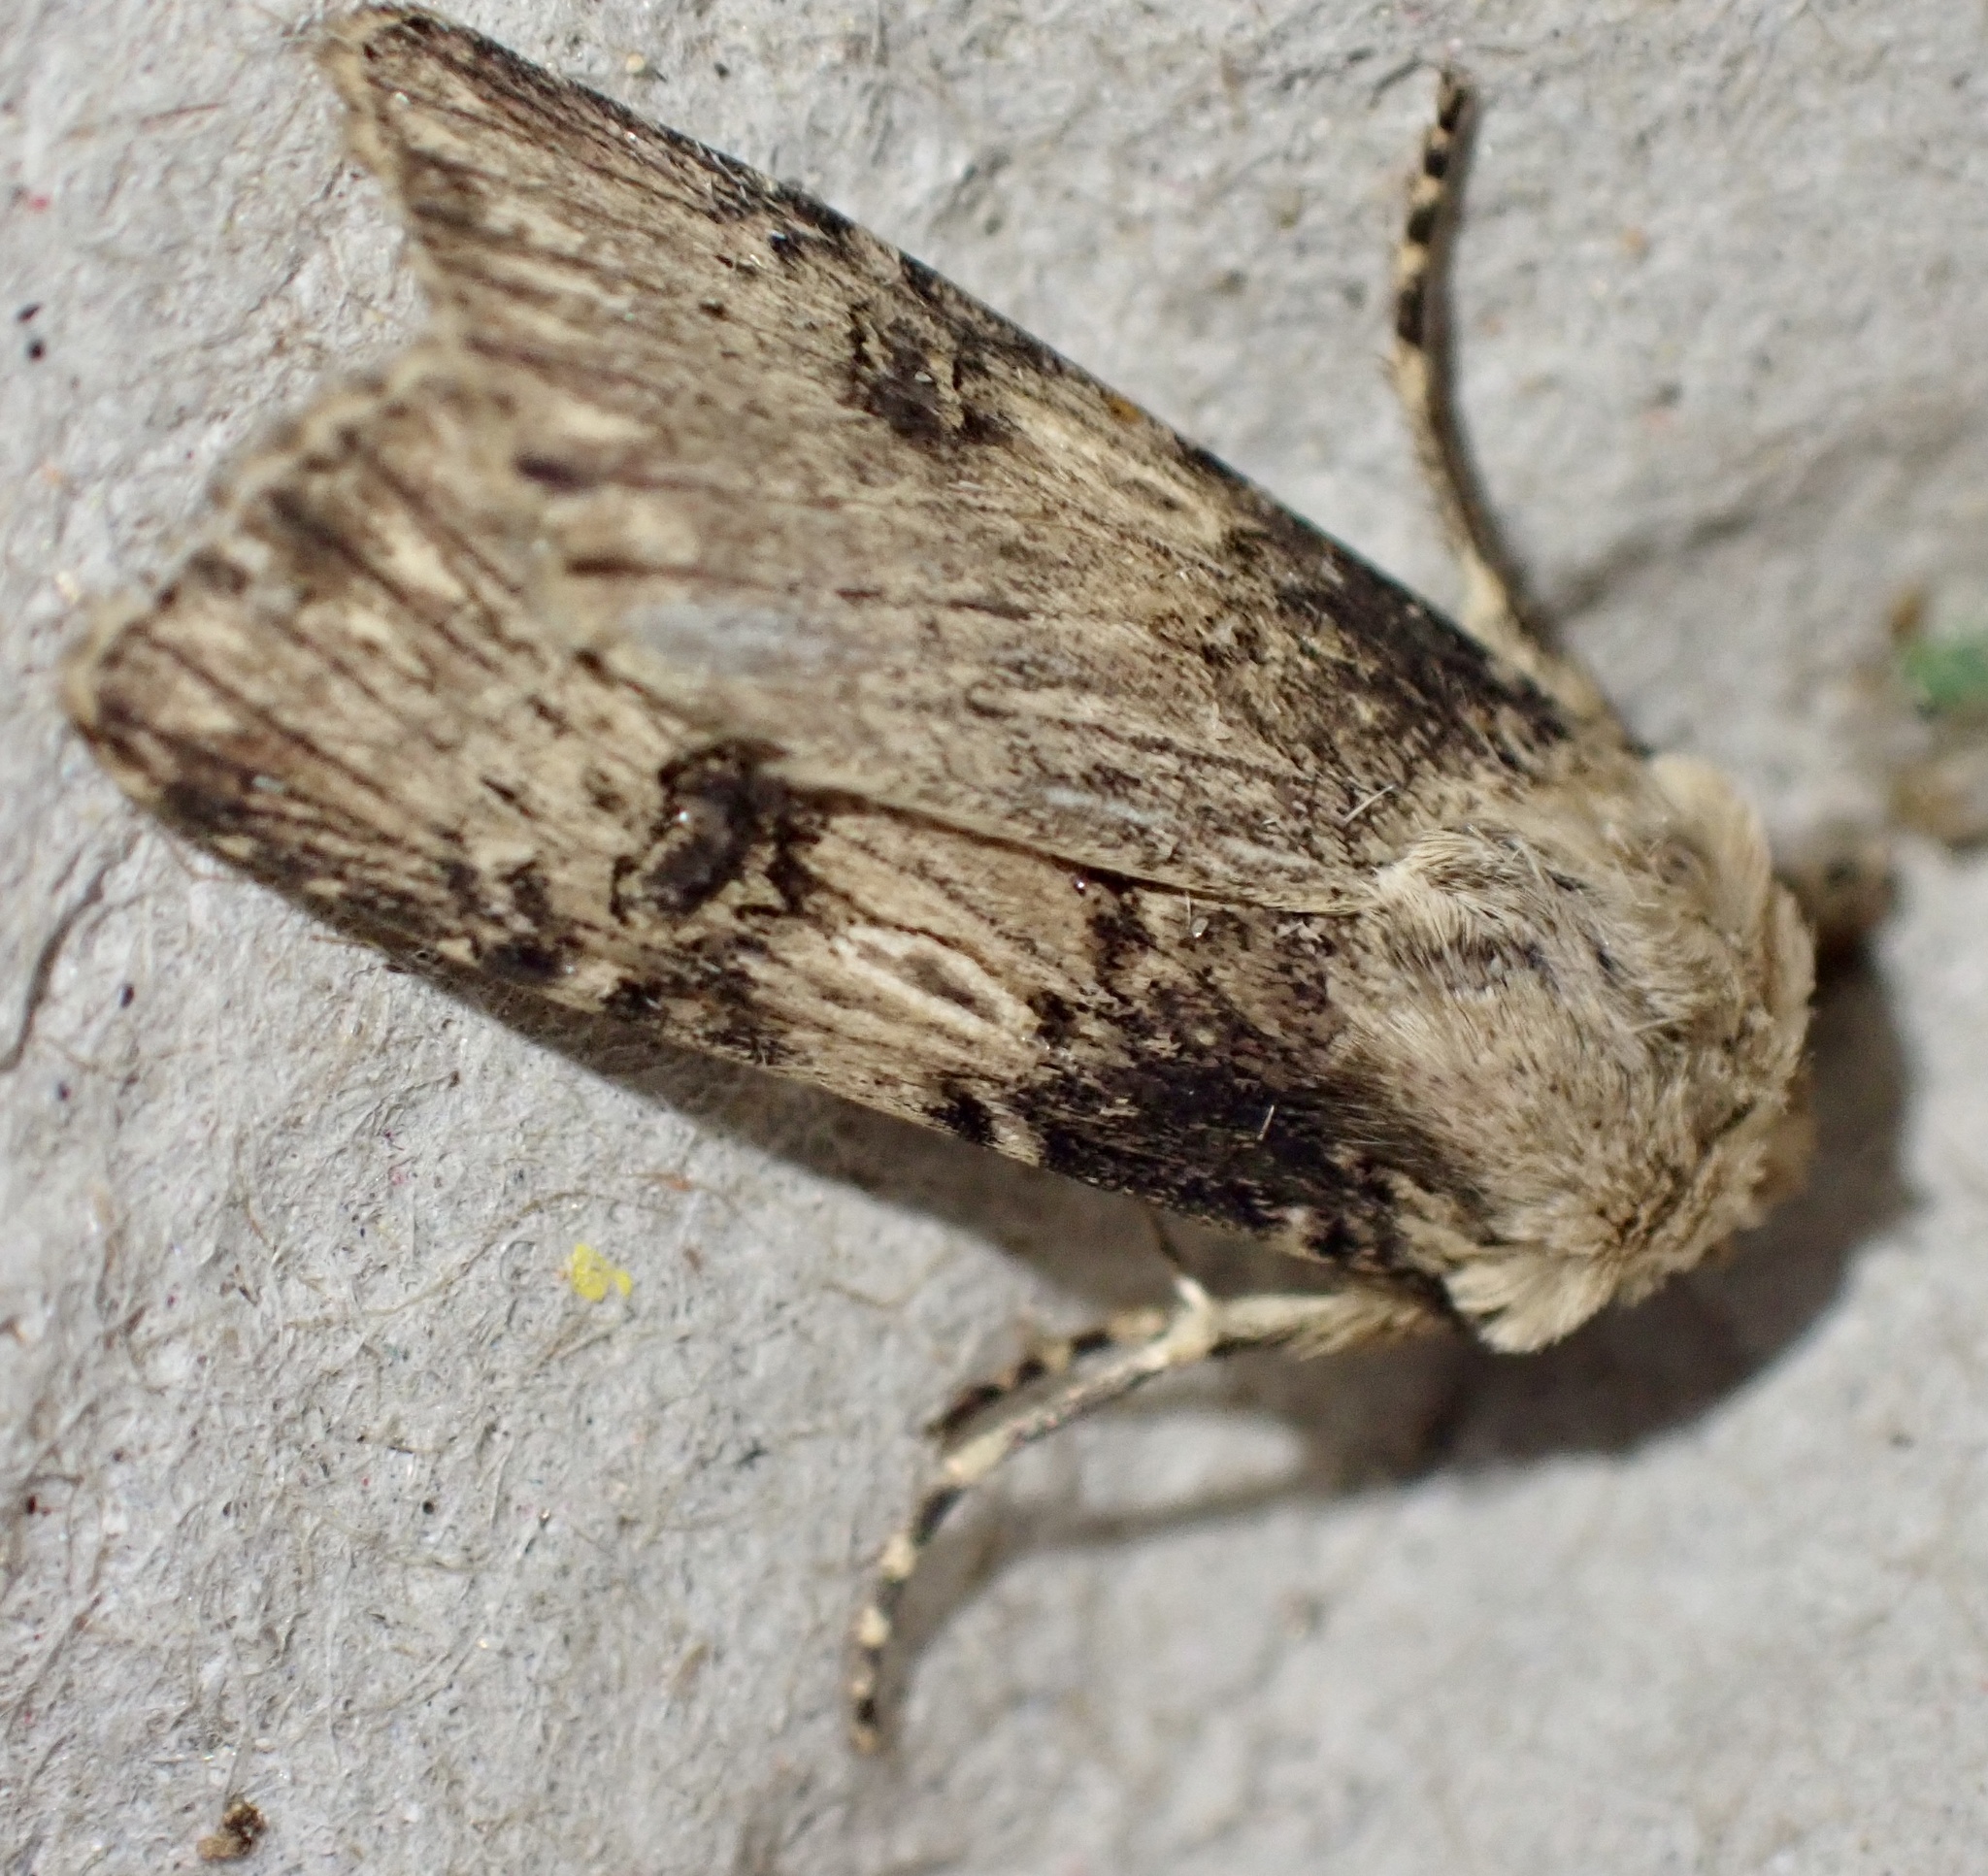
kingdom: Animalia
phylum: Arthropoda
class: Insecta
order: Lepidoptera
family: Noctuidae
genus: Agrotis
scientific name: Agrotis puta
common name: Shuttle-shaped dart
